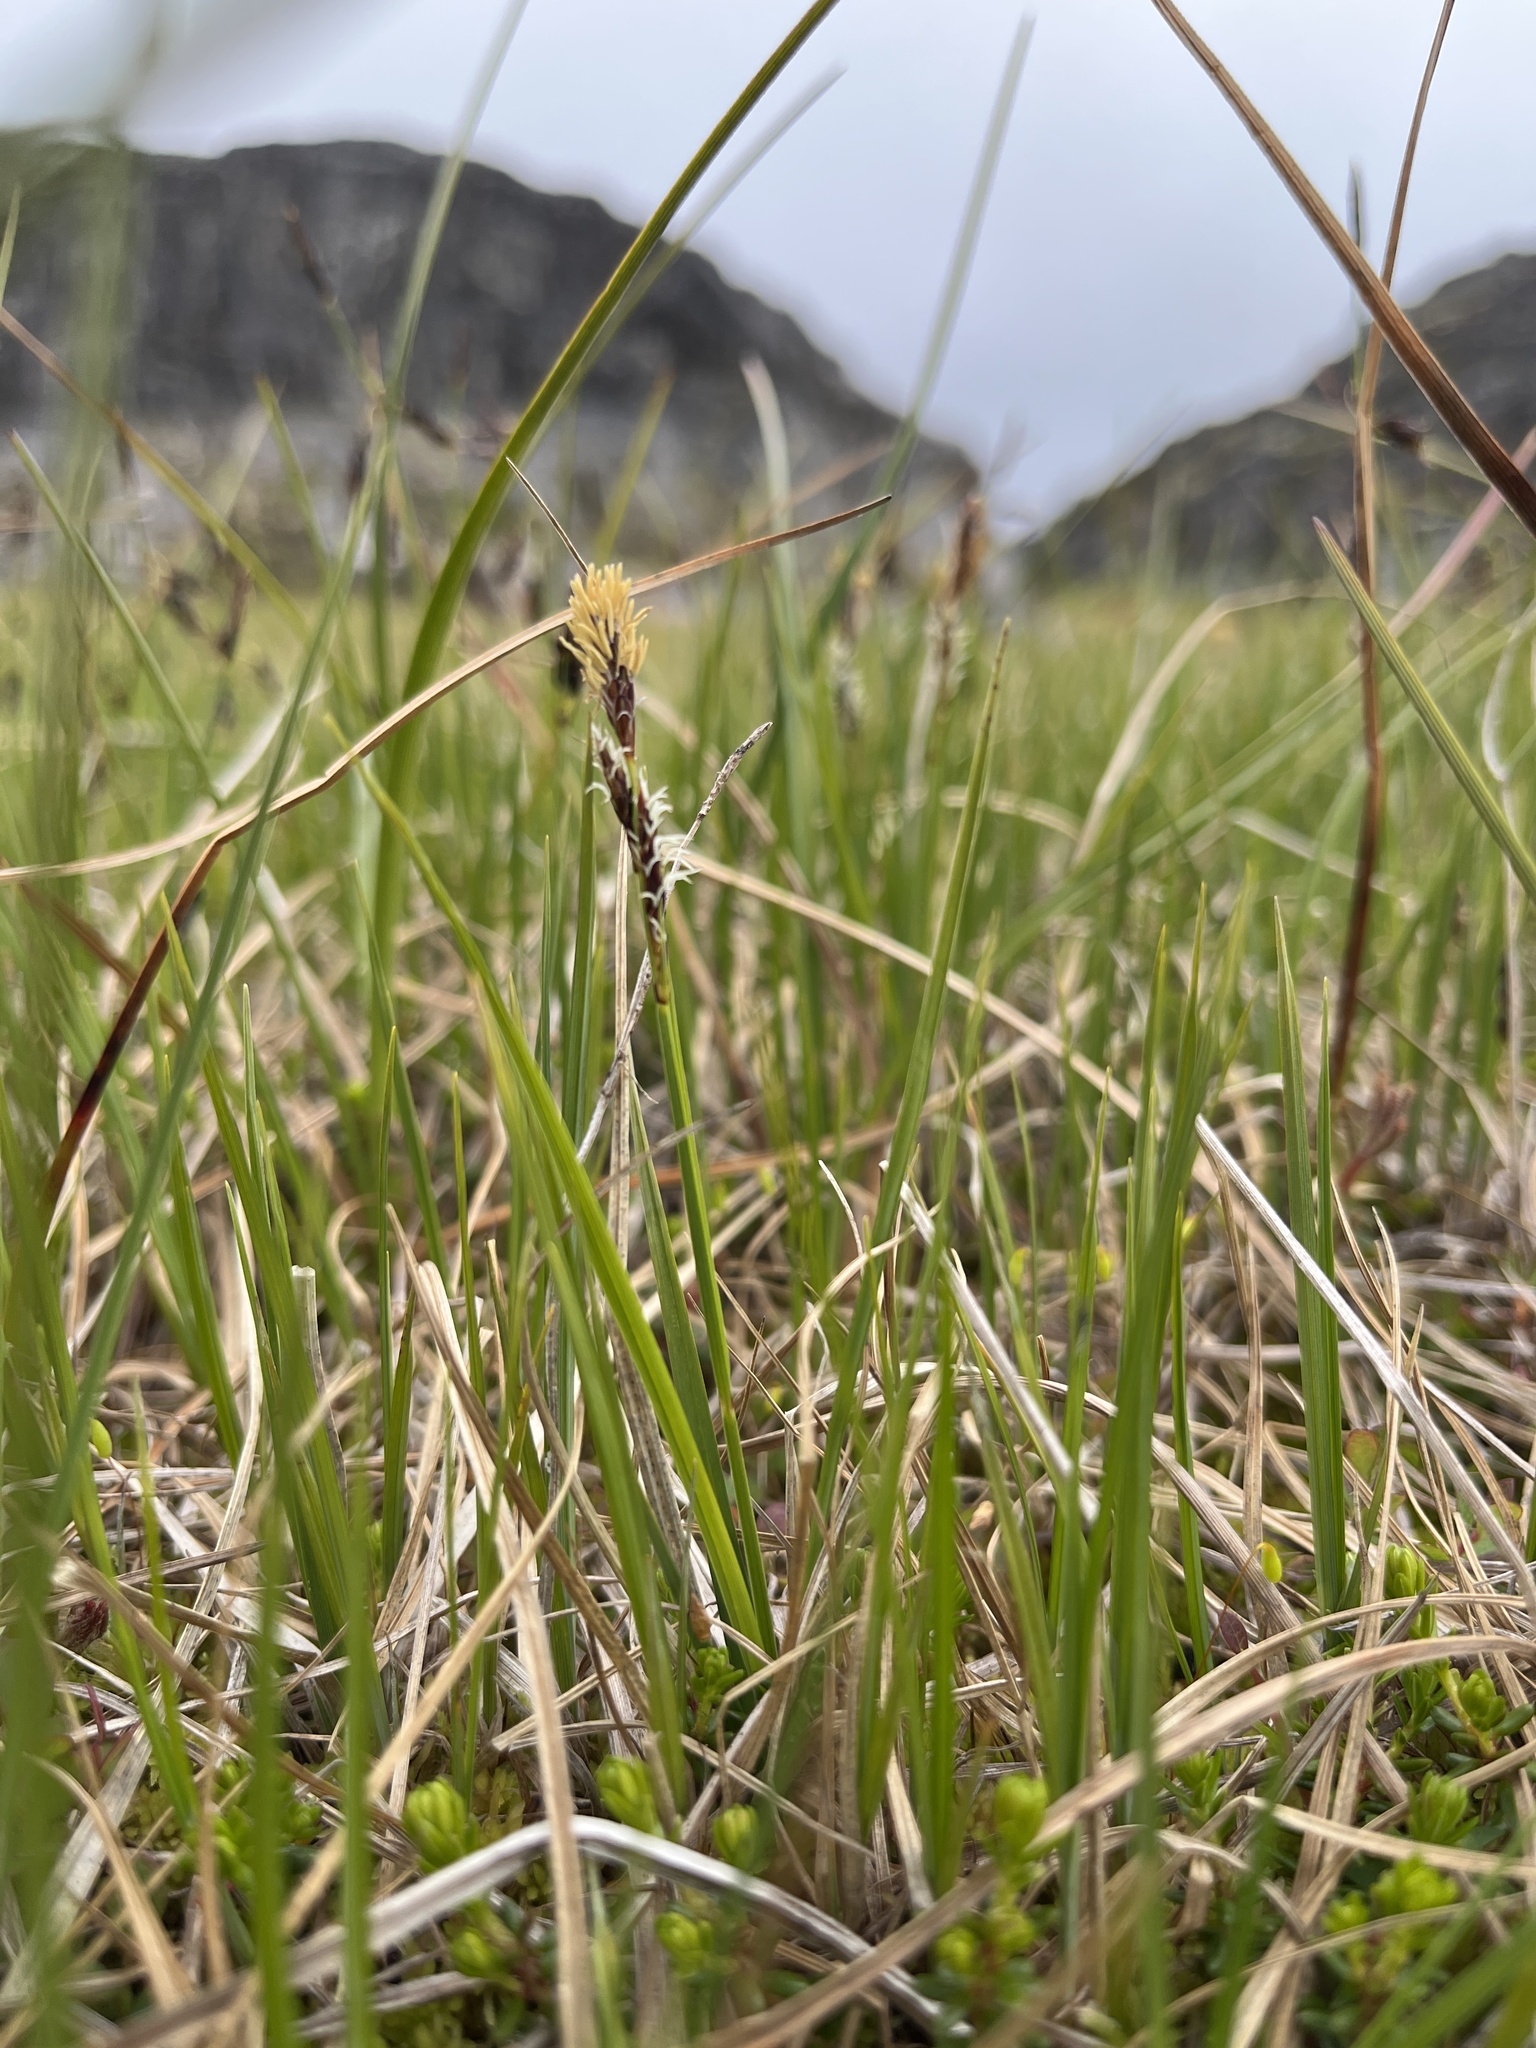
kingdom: Plantae
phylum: Tracheophyta
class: Liliopsida
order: Poales
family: Cyperaceae
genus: Carex
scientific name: Carex bigelowii
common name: Stiff sedge
